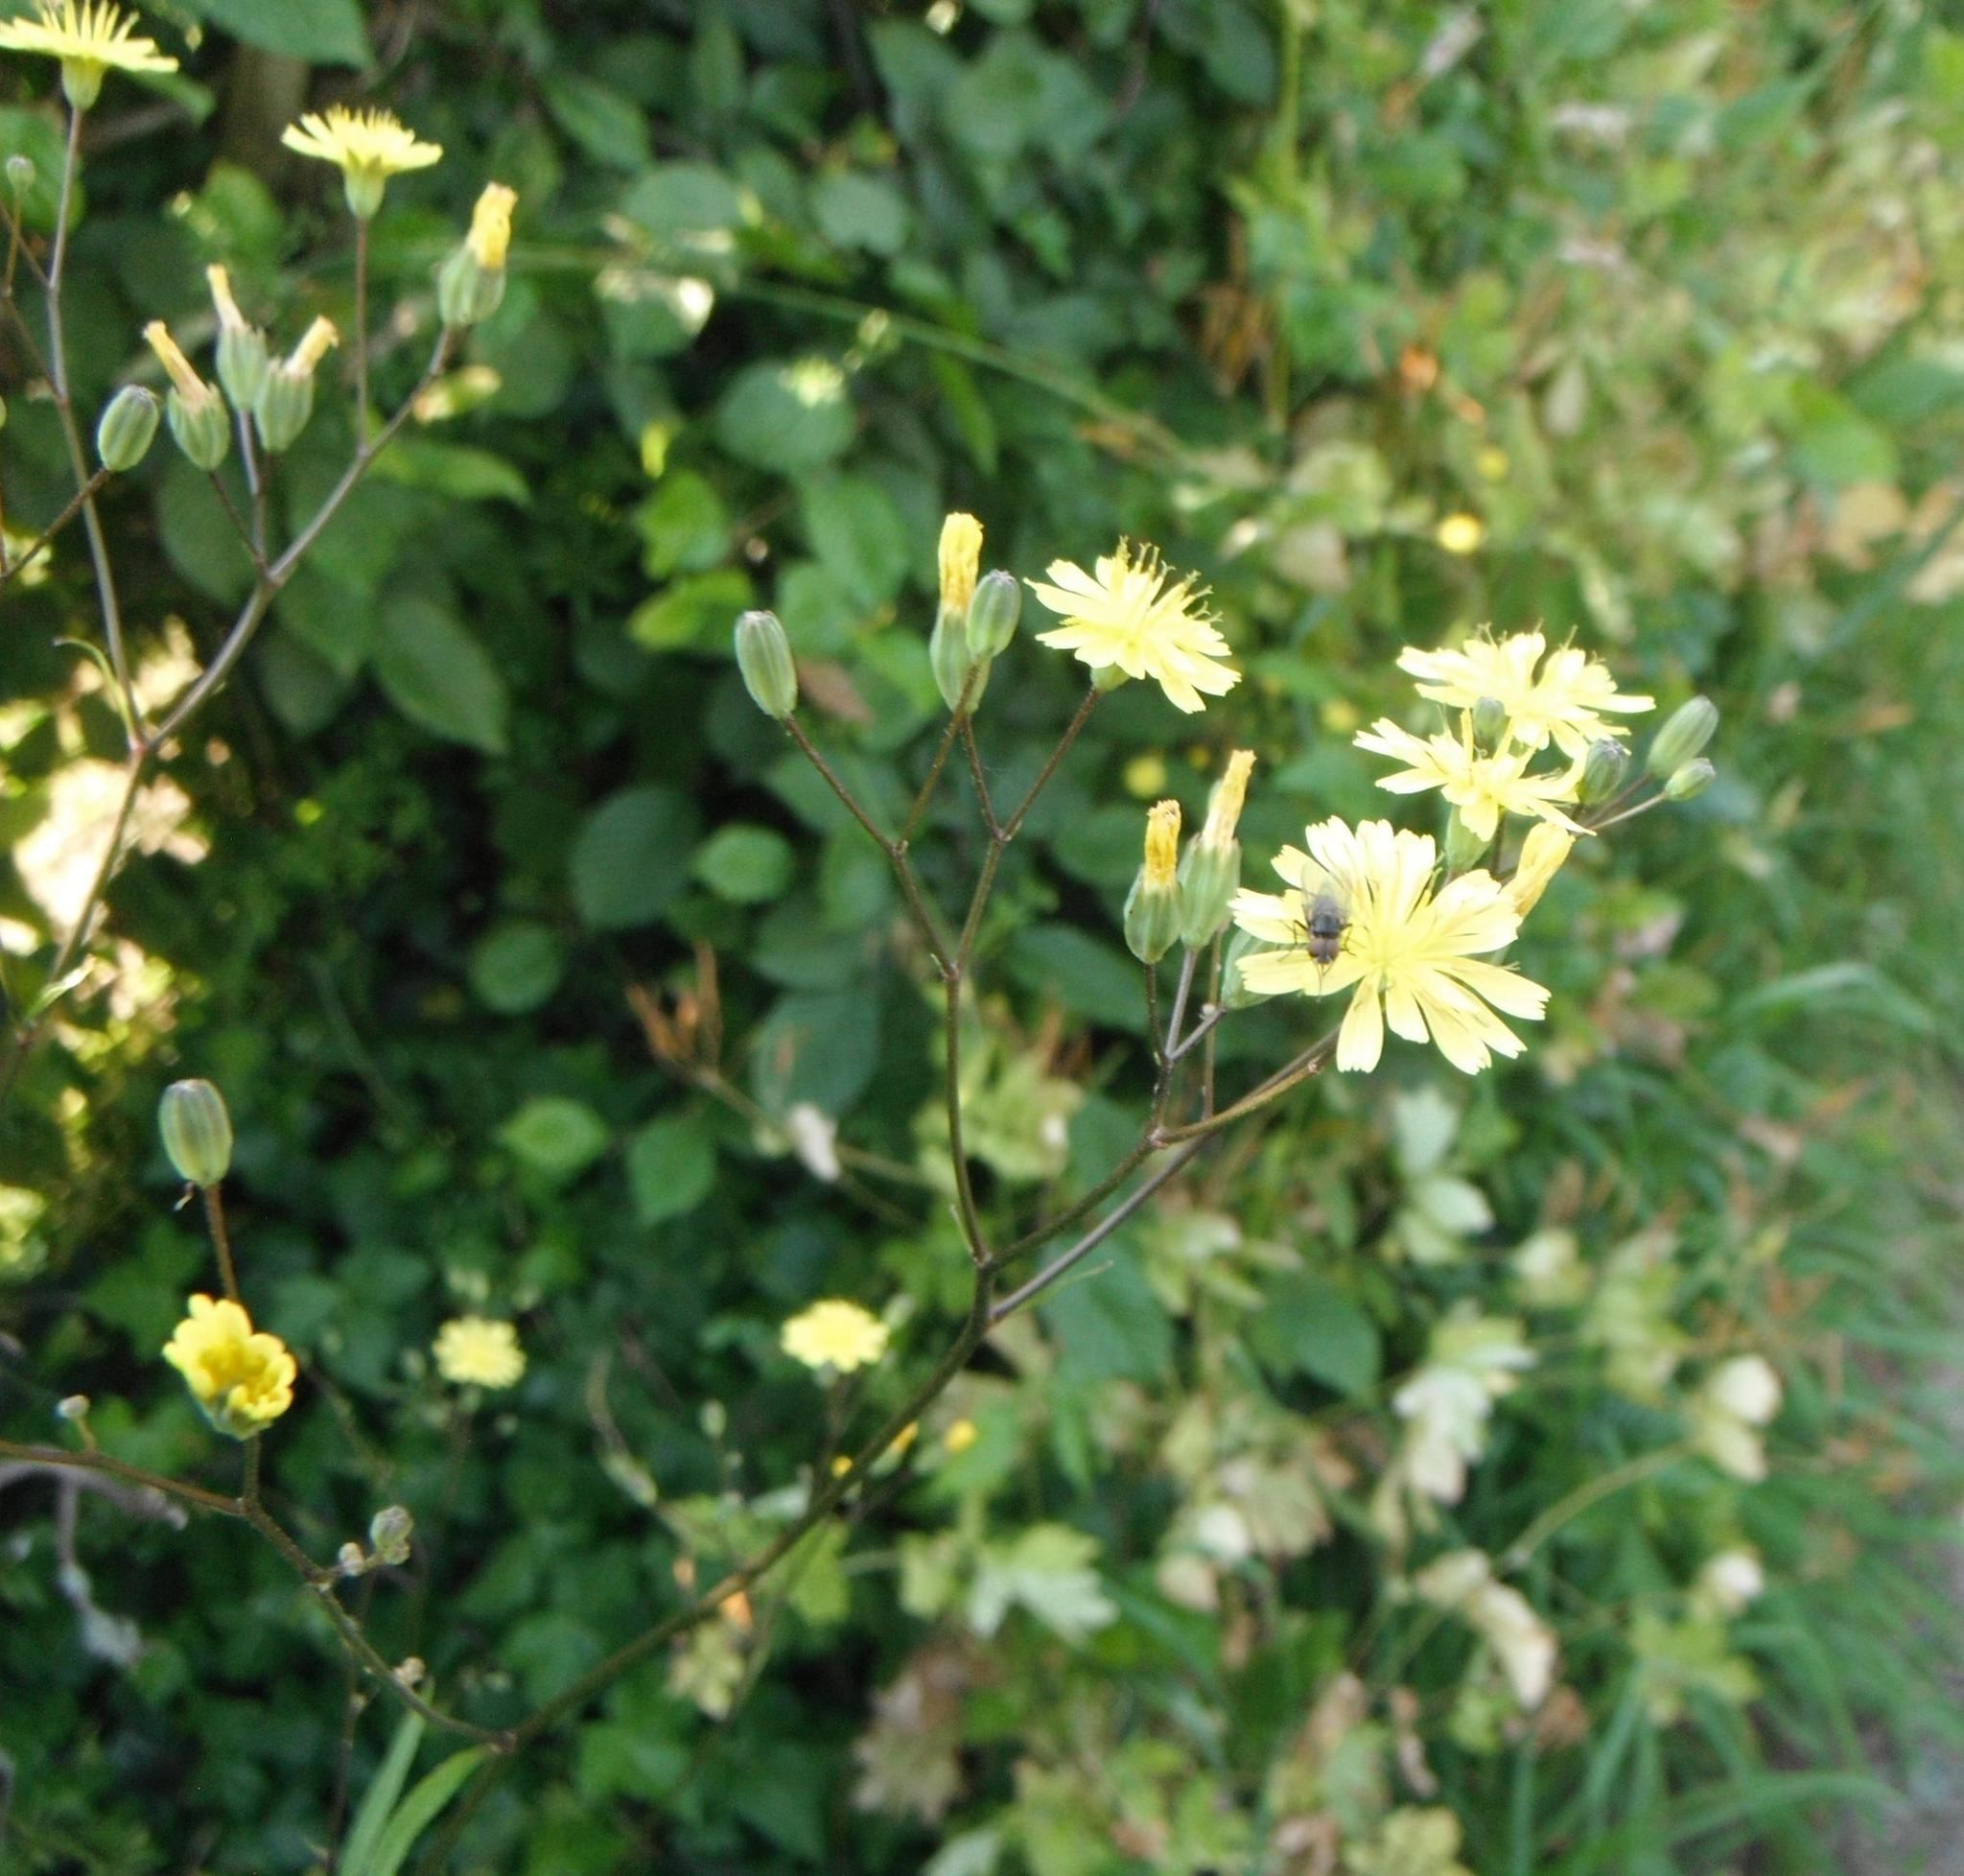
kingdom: Plantae
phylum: Tracheophyta
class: Magnoliopsida
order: Asterales
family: Asteraceae
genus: Lapsana
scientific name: Lapsana communis
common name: Nipplewort
